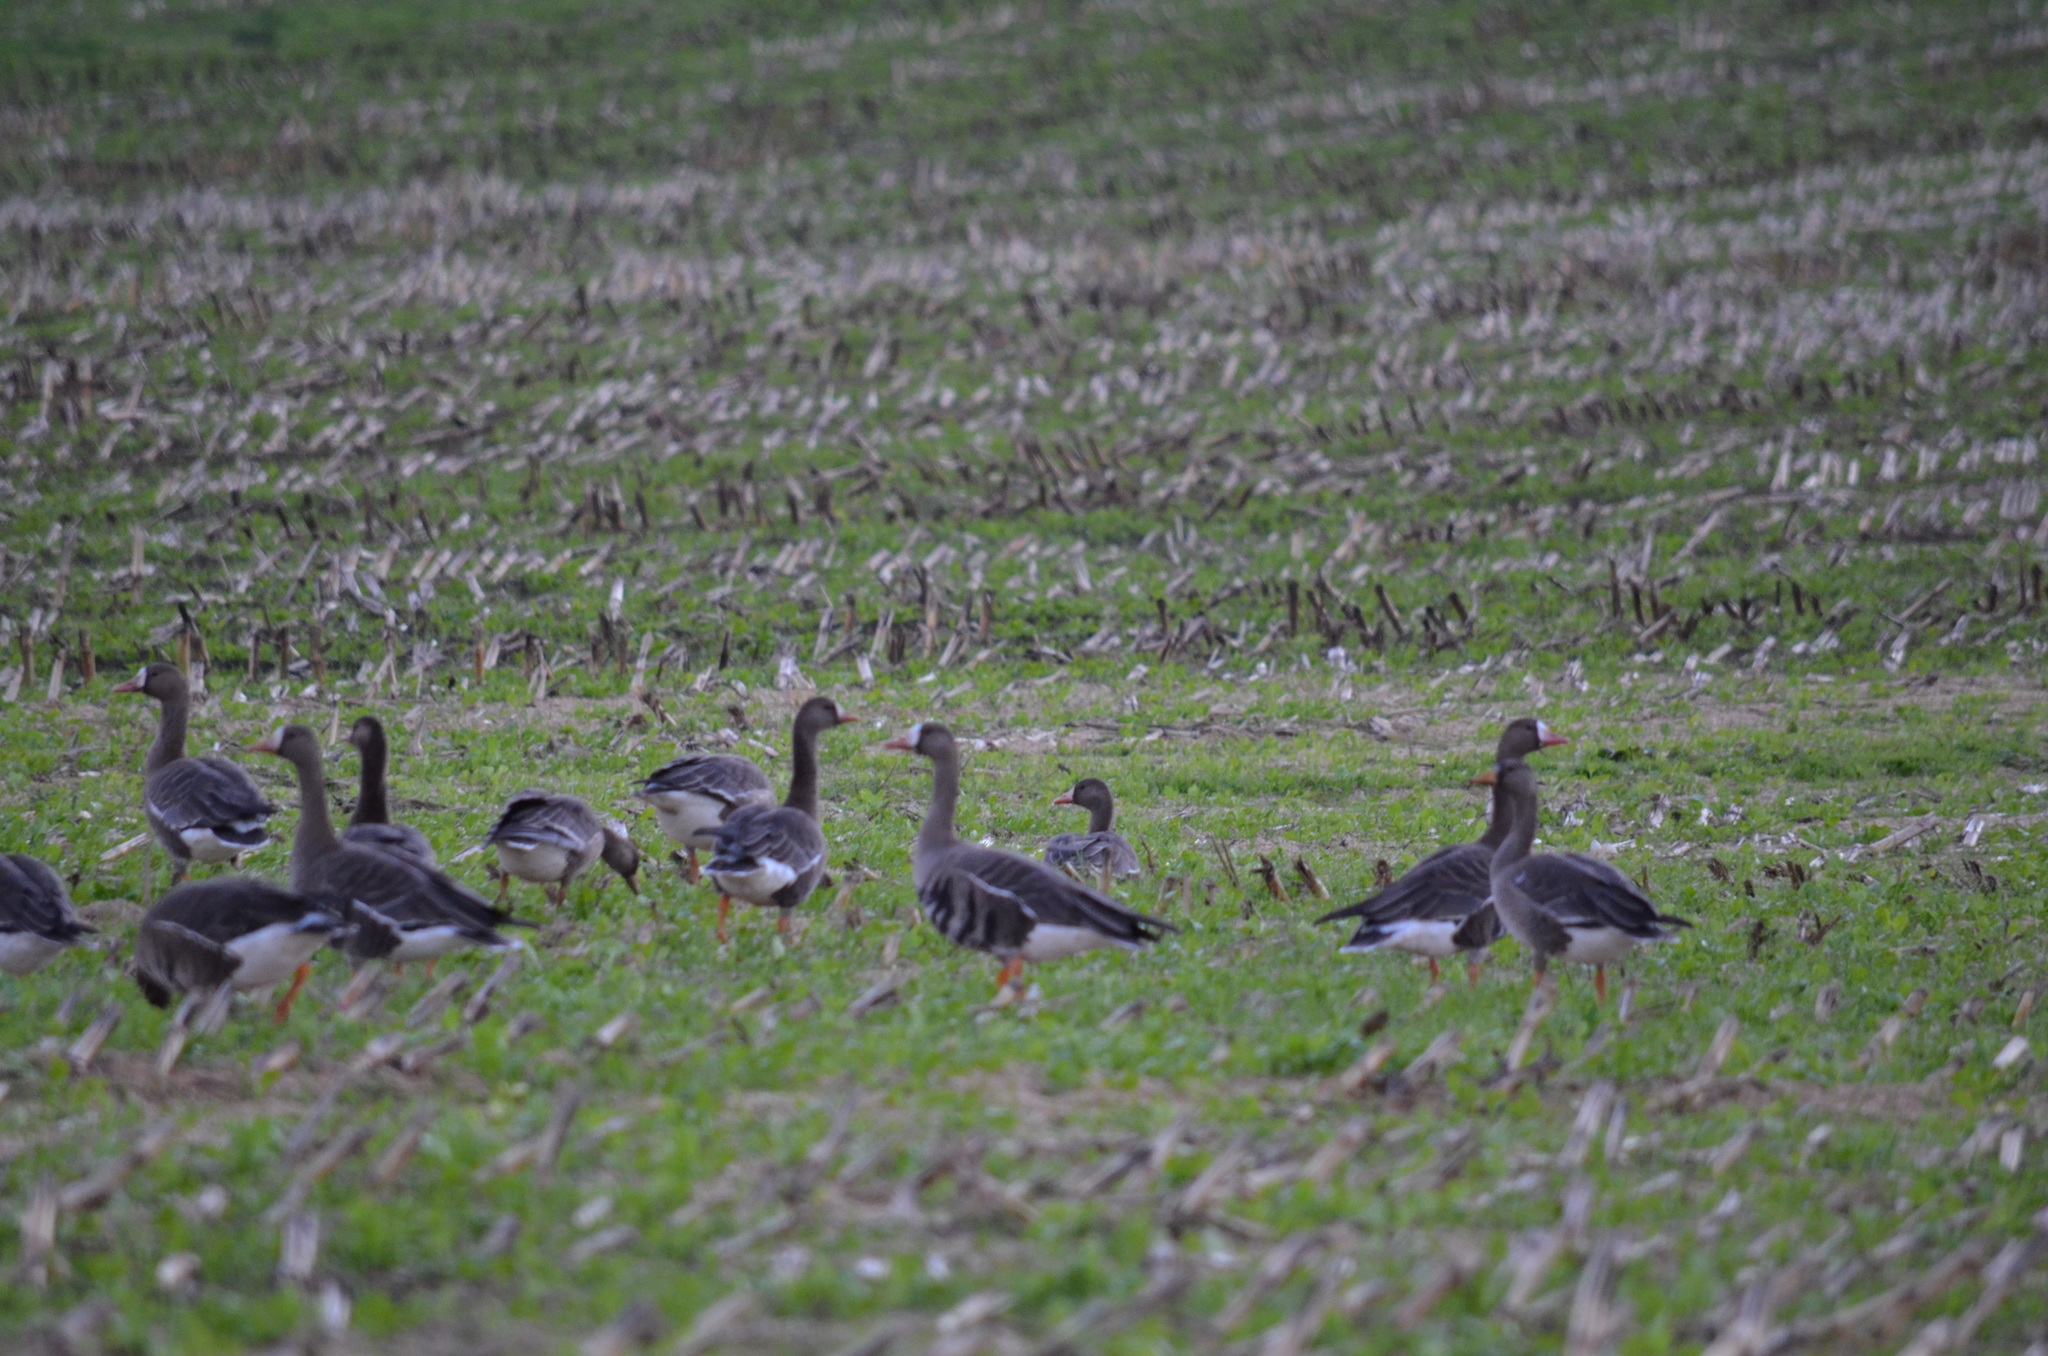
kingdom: Animalia
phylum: Chordata
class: Aves
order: Anseriformes
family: Anatidae
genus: Anser
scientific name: Anser albifrons
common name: Greater white-fronted goose
